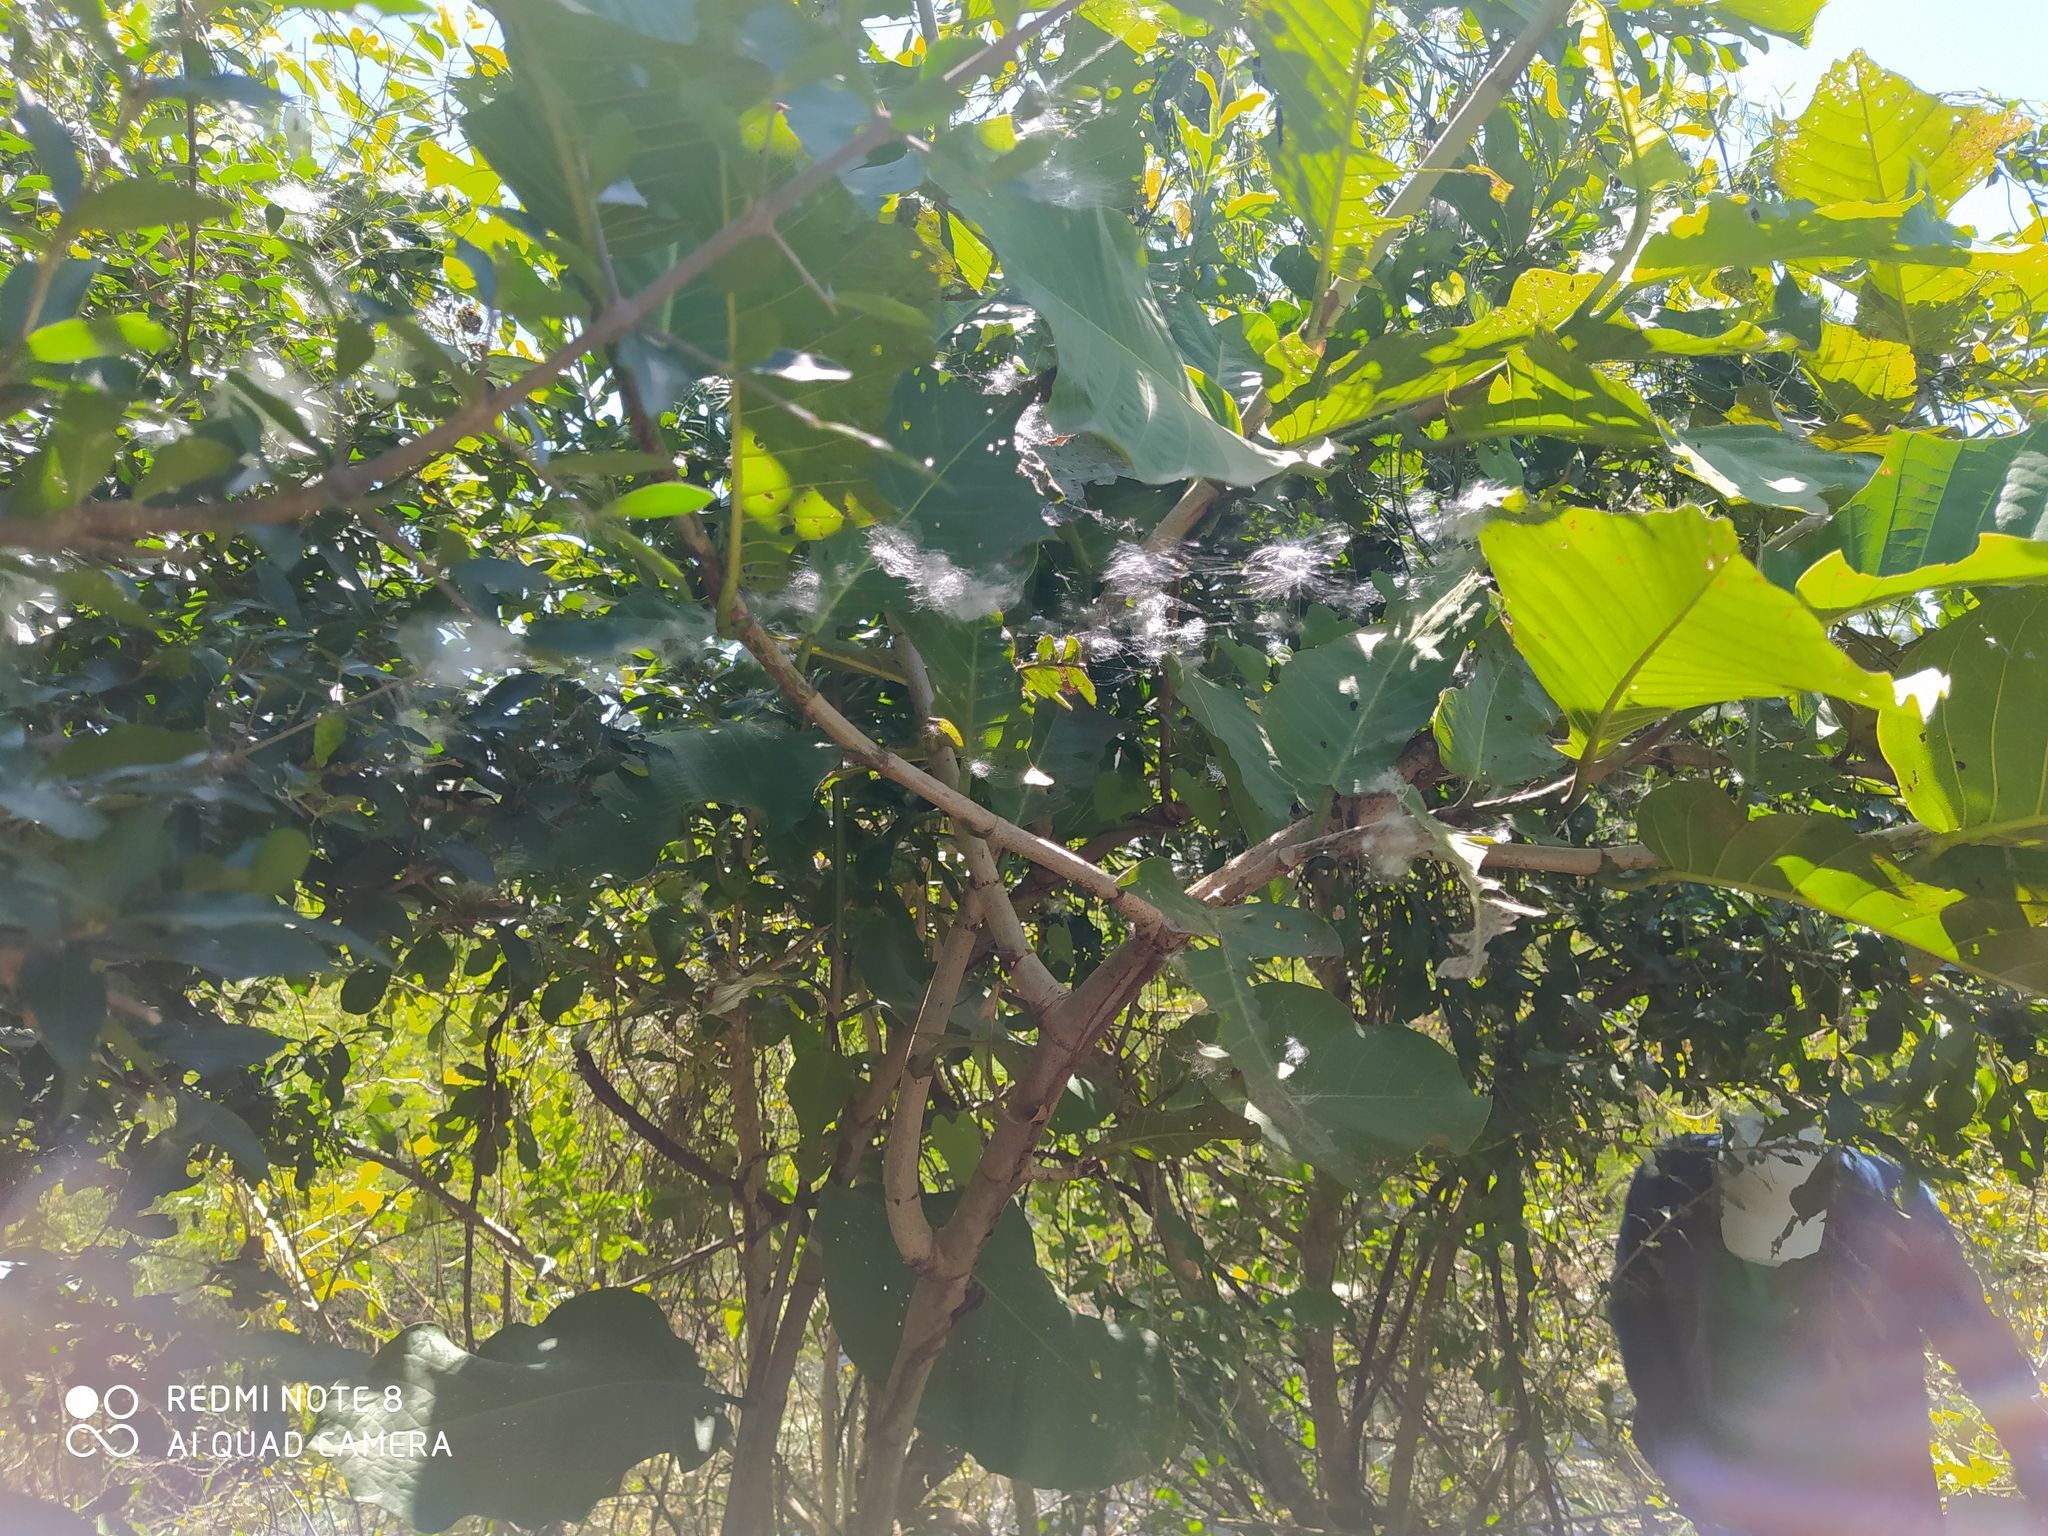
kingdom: Plantae
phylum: Tracheophyta
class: Magnoliopsida
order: Caryophyllales
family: Polygonaceae
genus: Coccoloba
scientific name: Coccoloba caracasana
